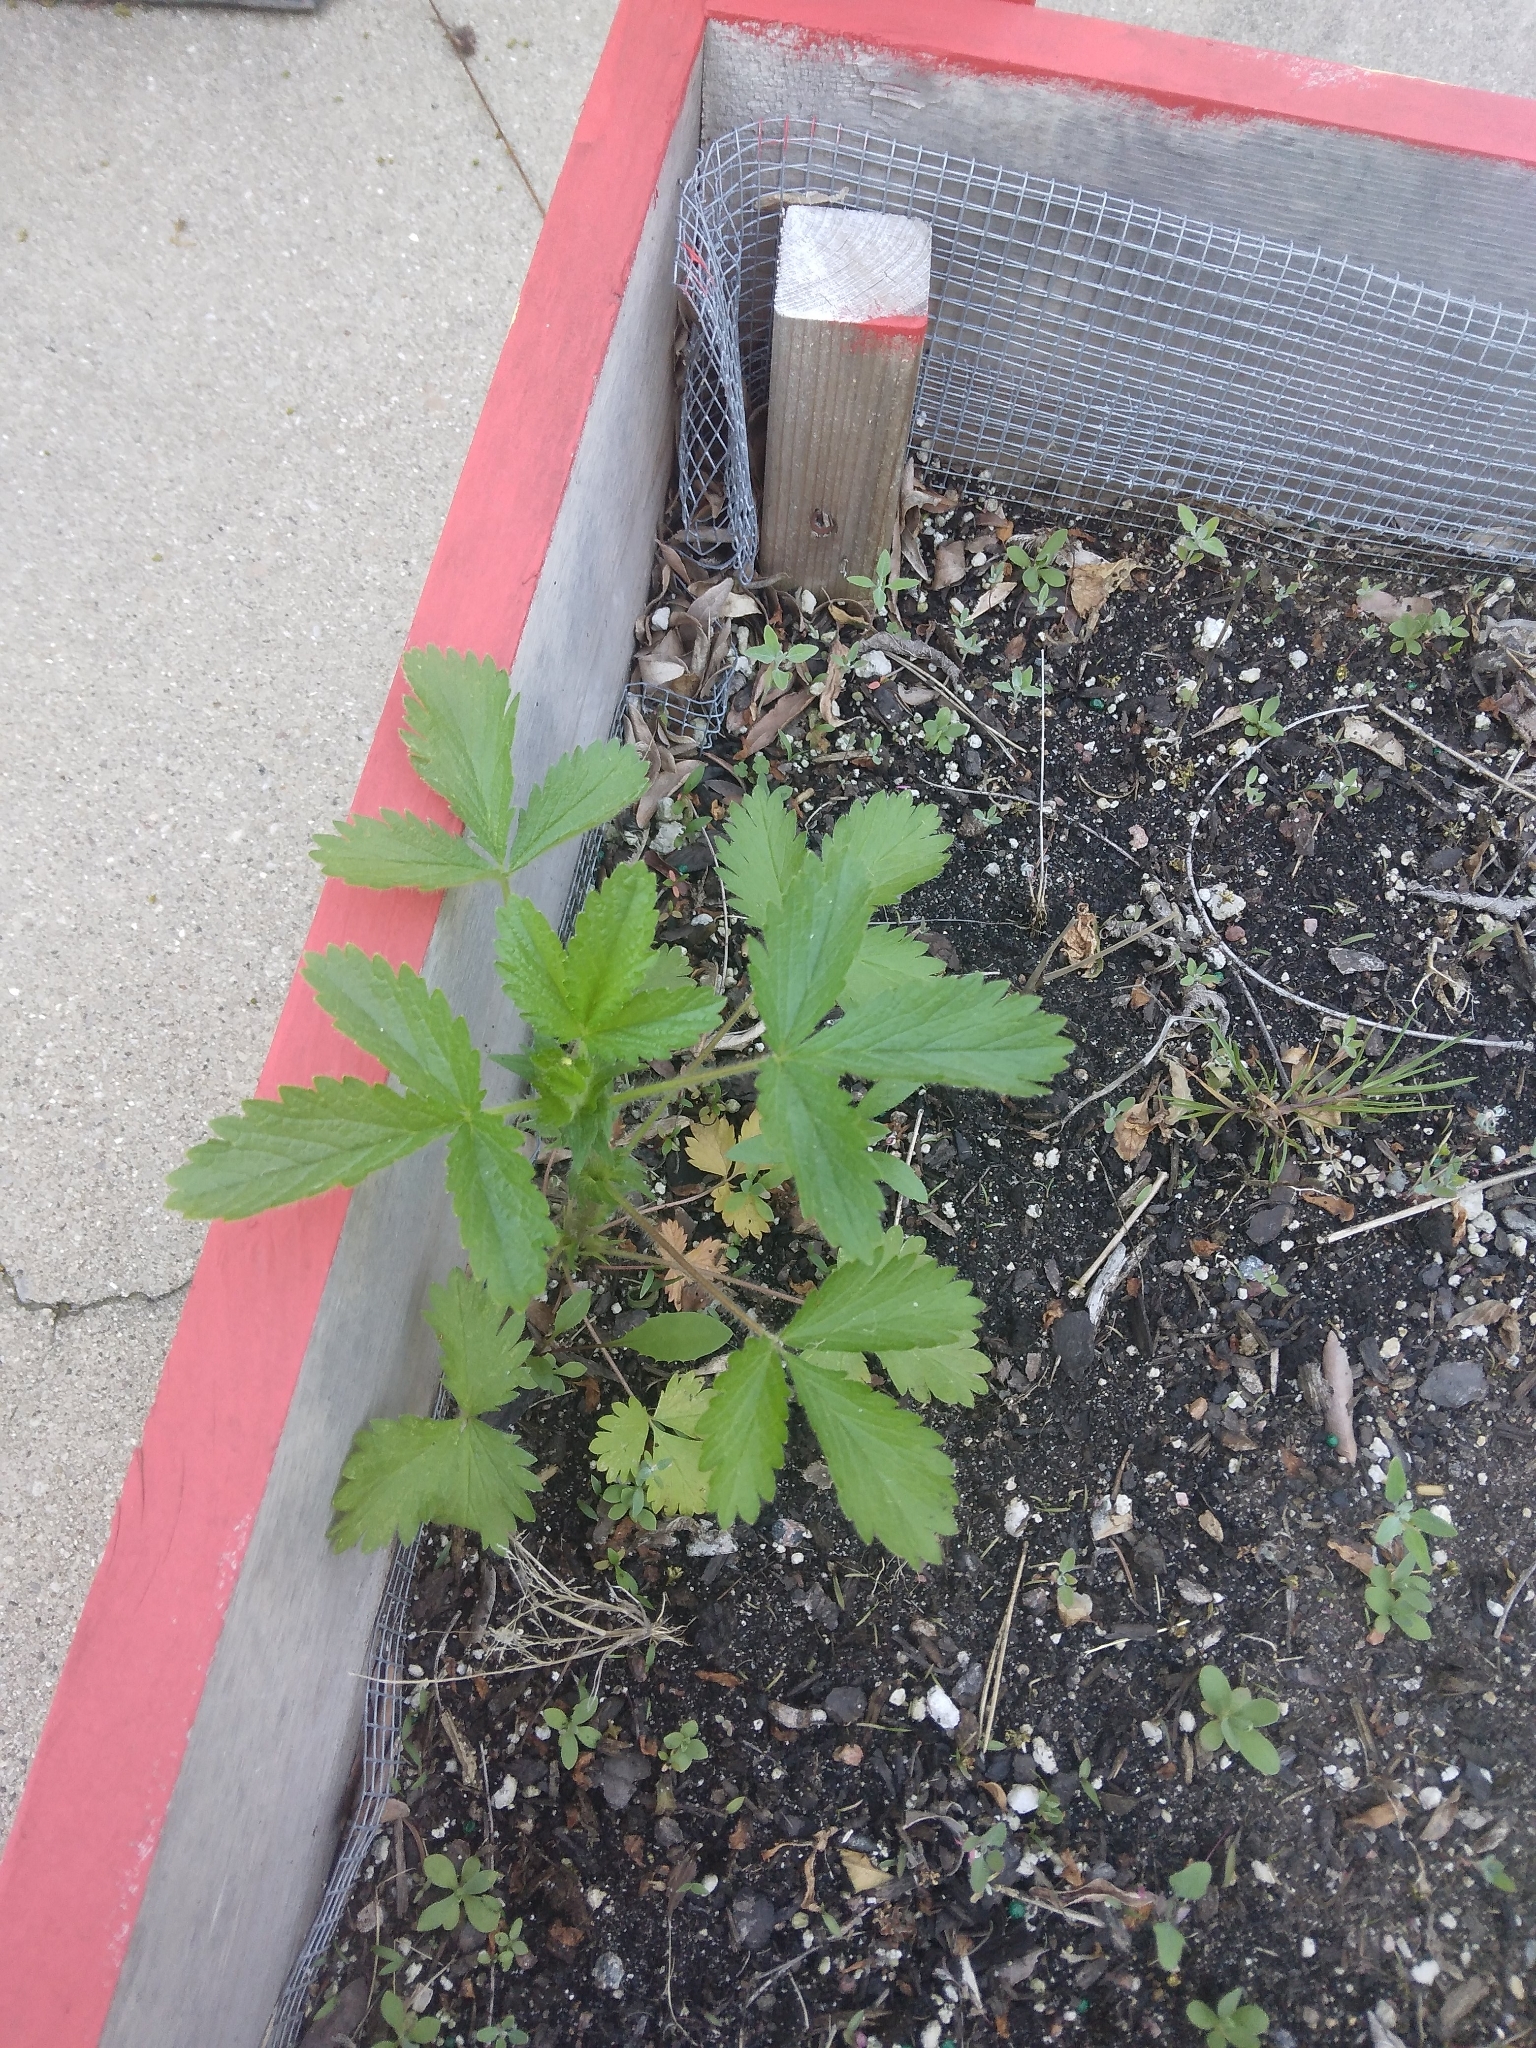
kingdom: Plantae
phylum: Tracheophyta
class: Magnoliopsida
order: Rosales
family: Rosaceae
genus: Potentilla
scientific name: Potentilla norvegica
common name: Ternate-leaved cinquefoil
